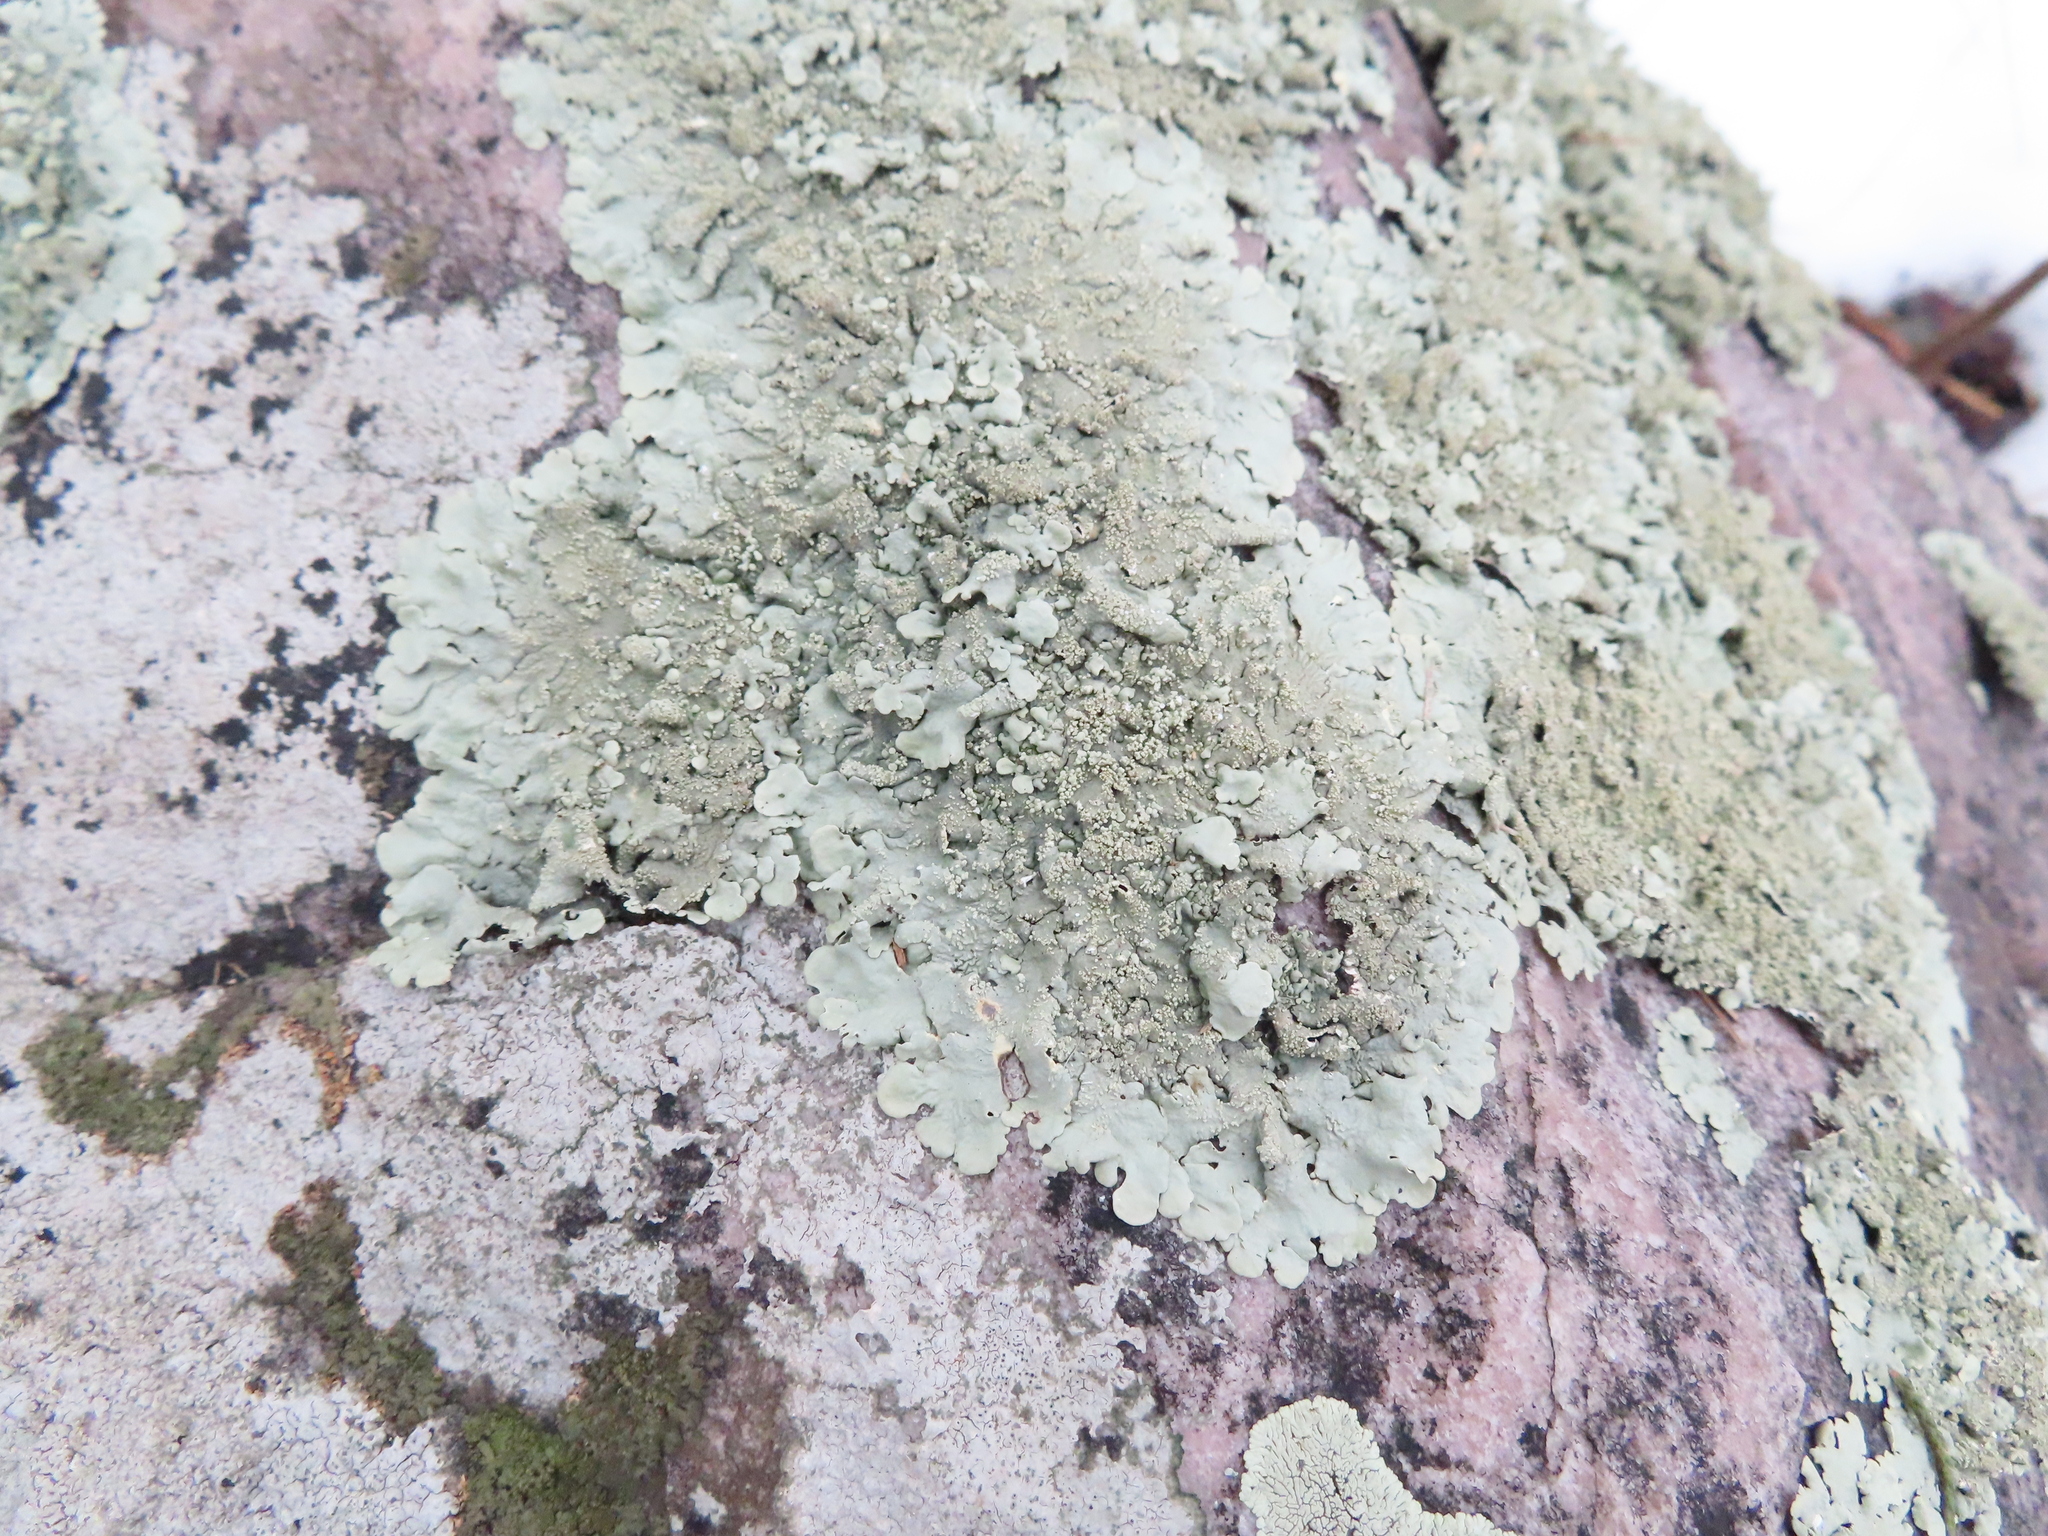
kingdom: Fungi
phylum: Ascomycota
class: Lecanoromycetes
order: Lecanorales
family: Parmeliaceae
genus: Flavoparmelia
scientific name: Flavoparmelia baltimorensis
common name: Rock greenshield
